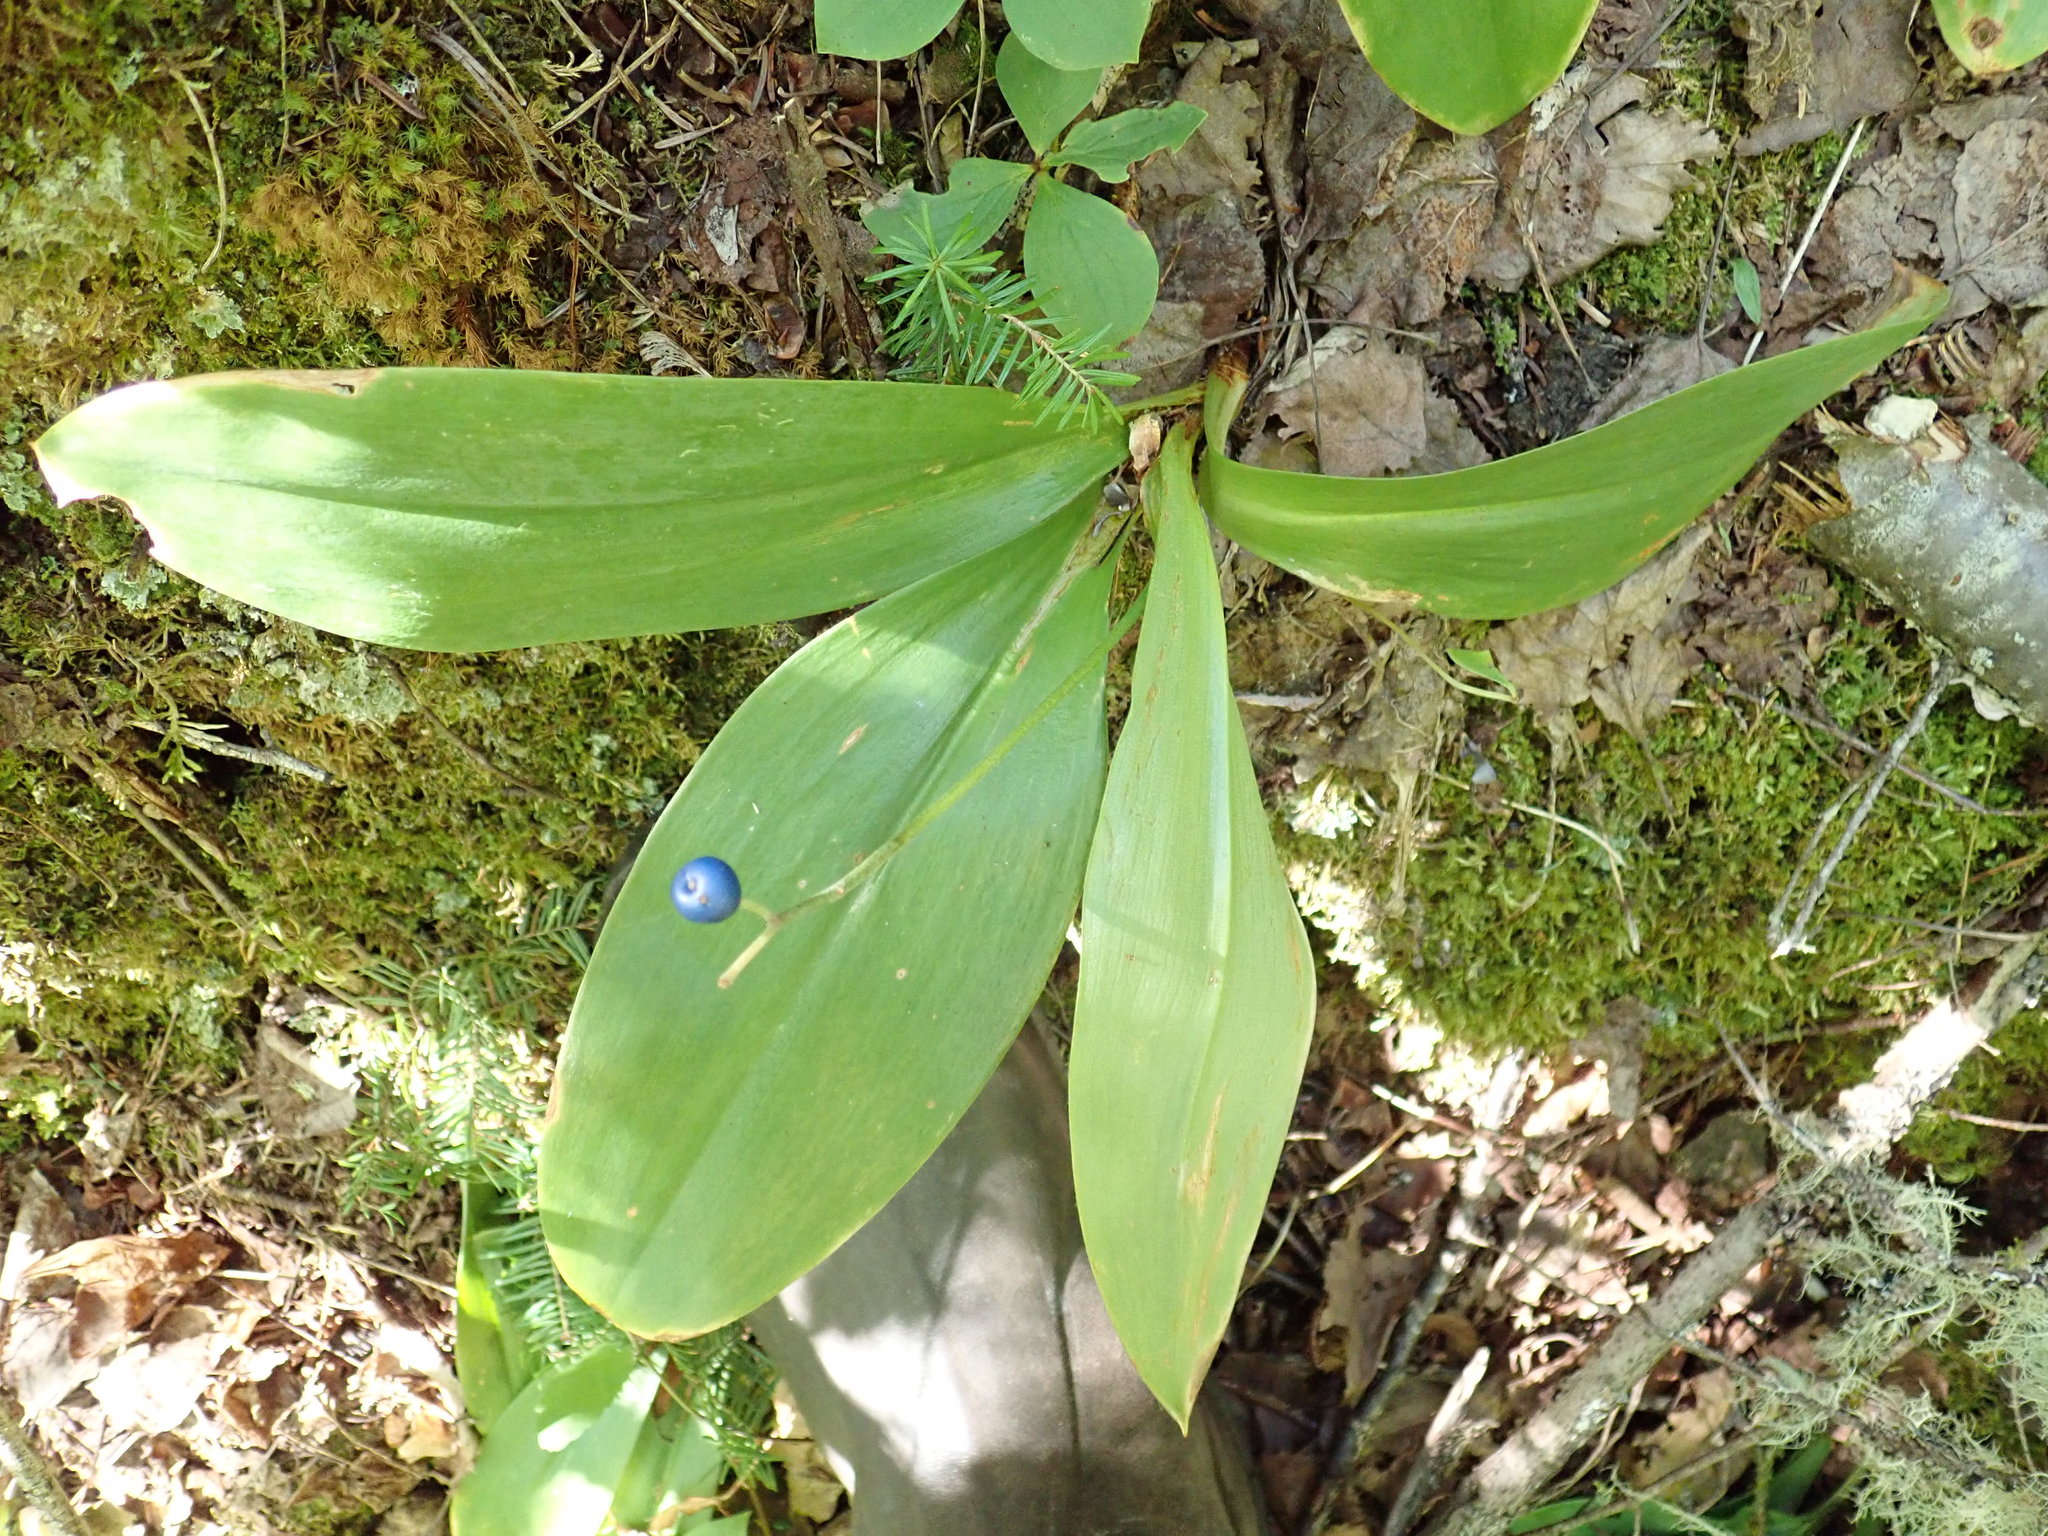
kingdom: Plantae
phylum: Tracheophyta
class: Liliopsida
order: Liliales
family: Liliaceae
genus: Clintonia
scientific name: Clintonia borealis
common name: Yellow clintonia
